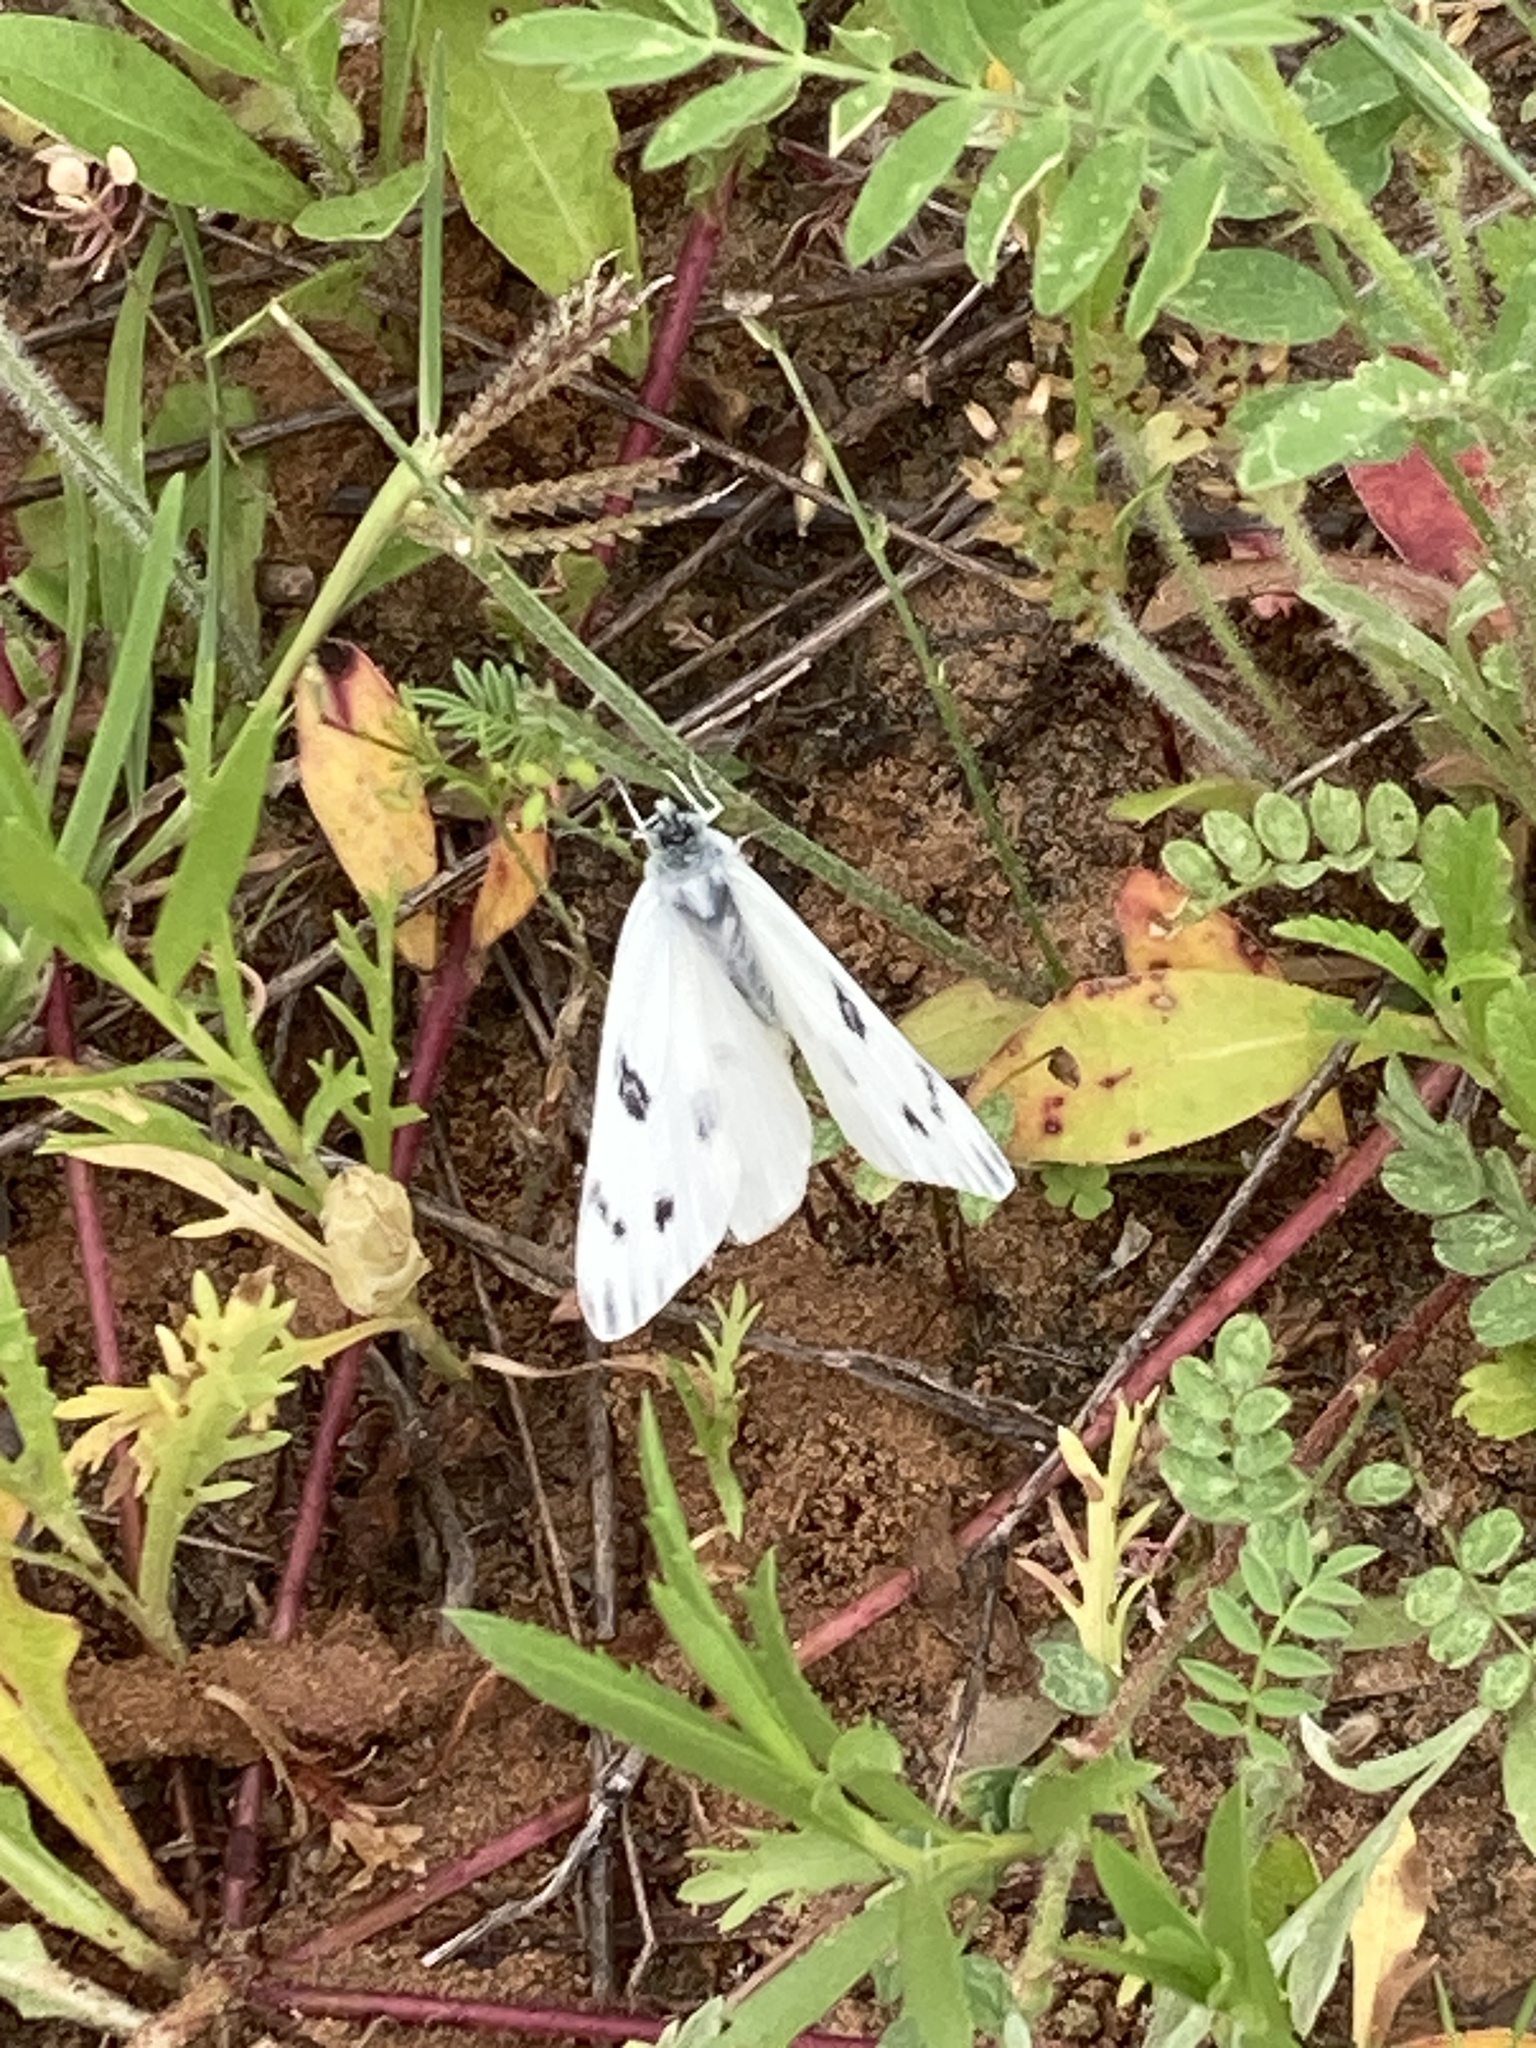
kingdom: Animalia
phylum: Arthropoda
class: Insecta
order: Lepidoptera
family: Pieridae
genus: Pontia
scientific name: Pontia protodice
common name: Checkered white
